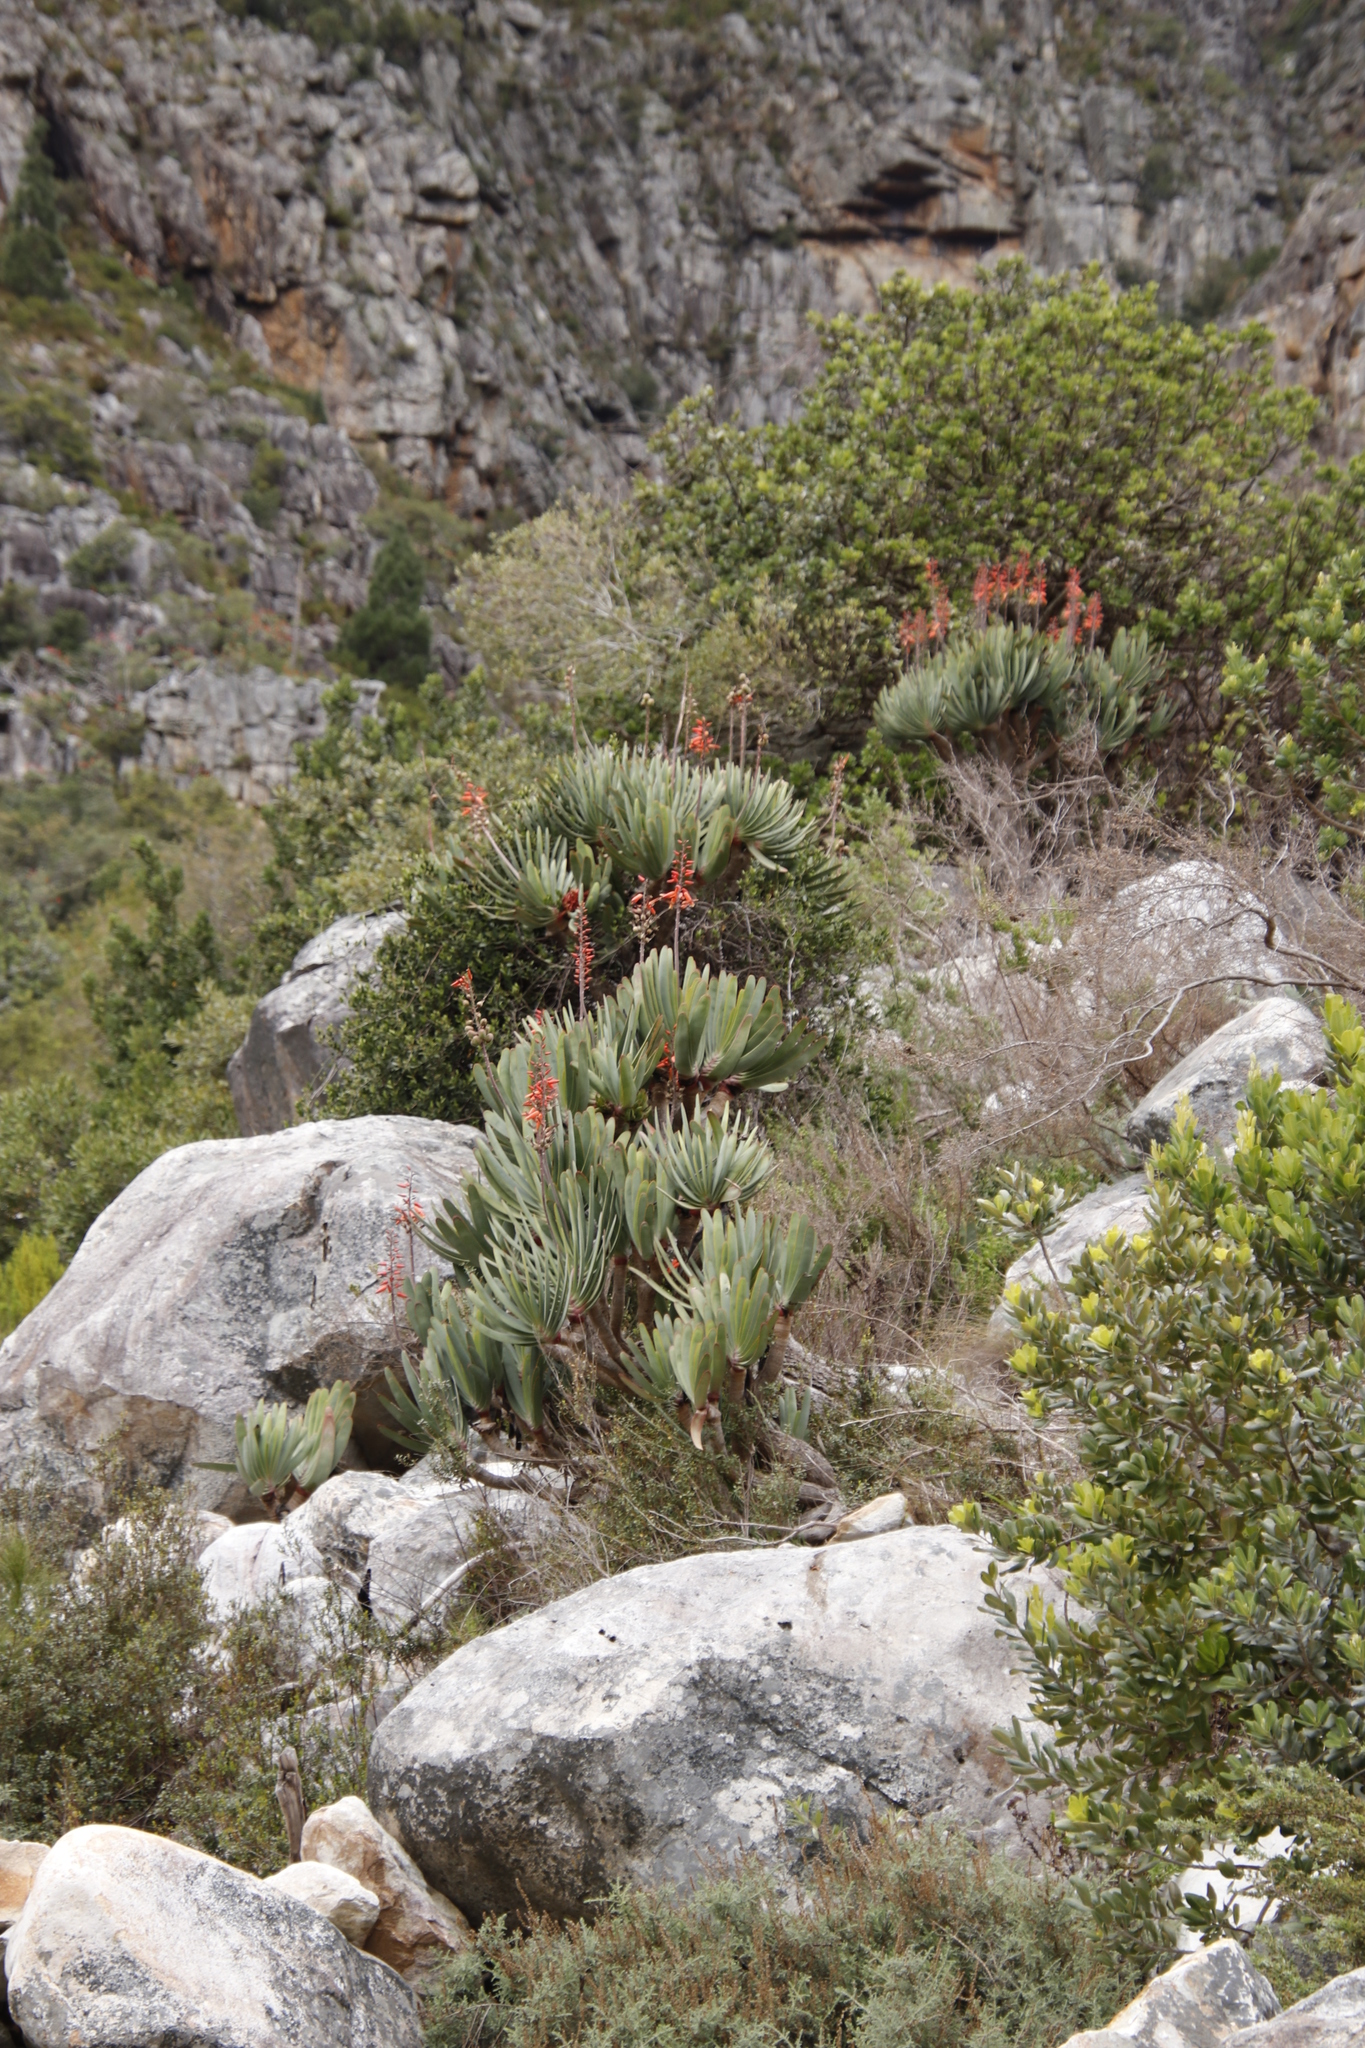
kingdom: Plantae
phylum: Tracheophyta
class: Liliopsida
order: Asparagales
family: Asphodelaceae
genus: Kumara
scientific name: Kumara plicatilis
